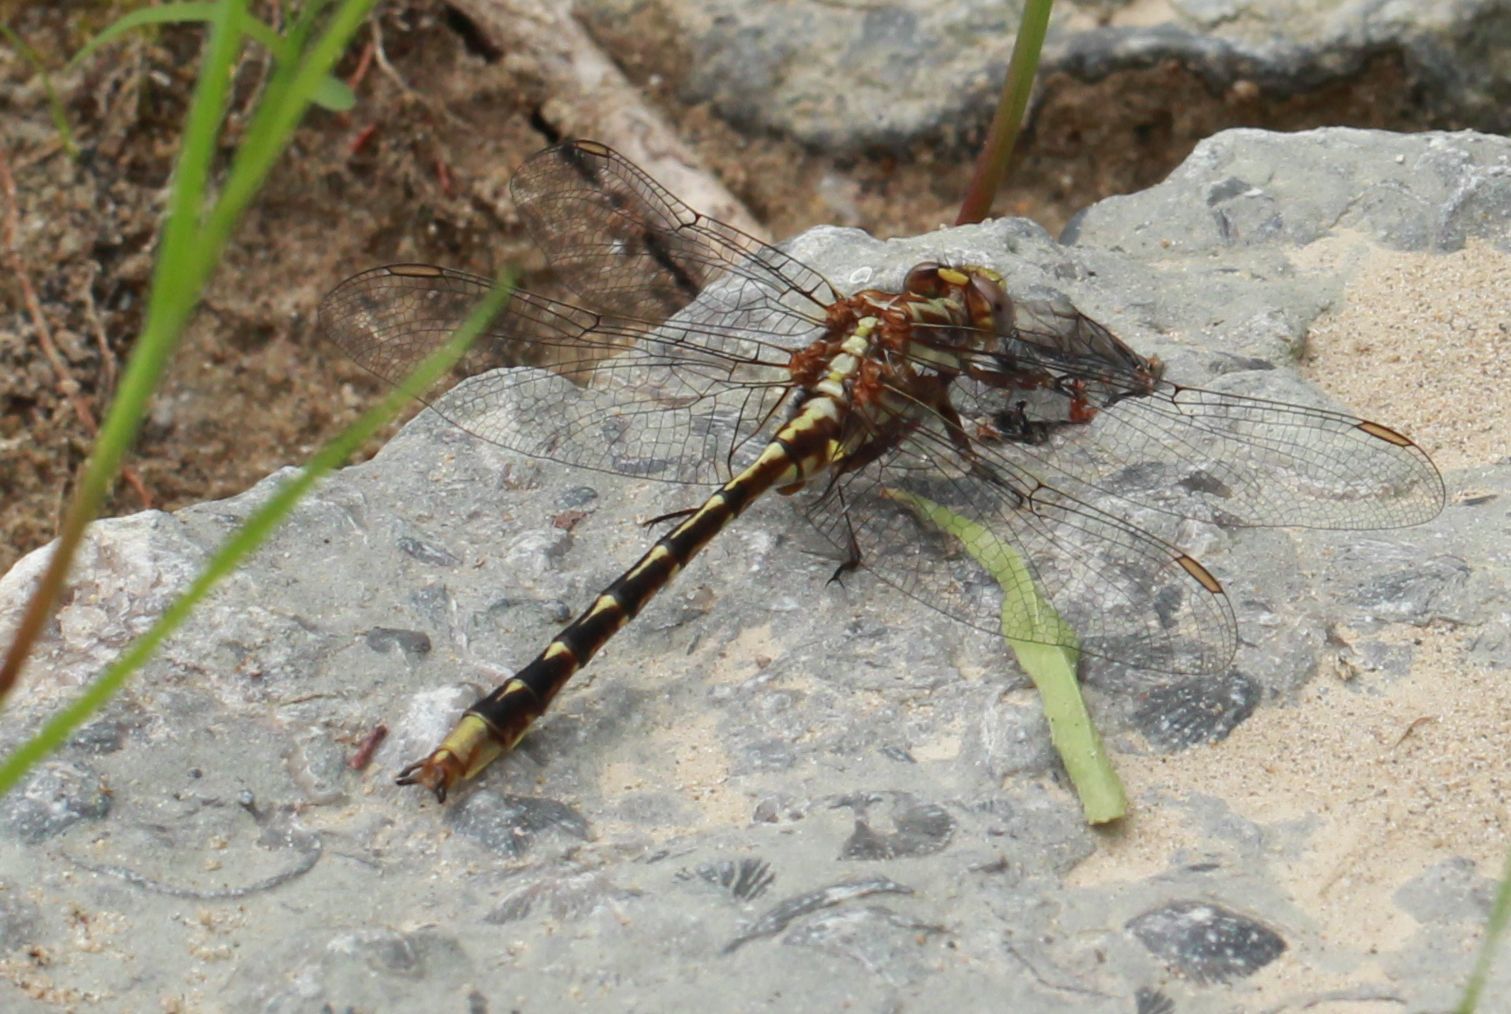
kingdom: Animalia
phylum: Arthropoda
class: Insecta
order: Odonata
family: Gomphidae
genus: Phanogomphus
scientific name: Phanogomphus lividus
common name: Ashy clubtail
